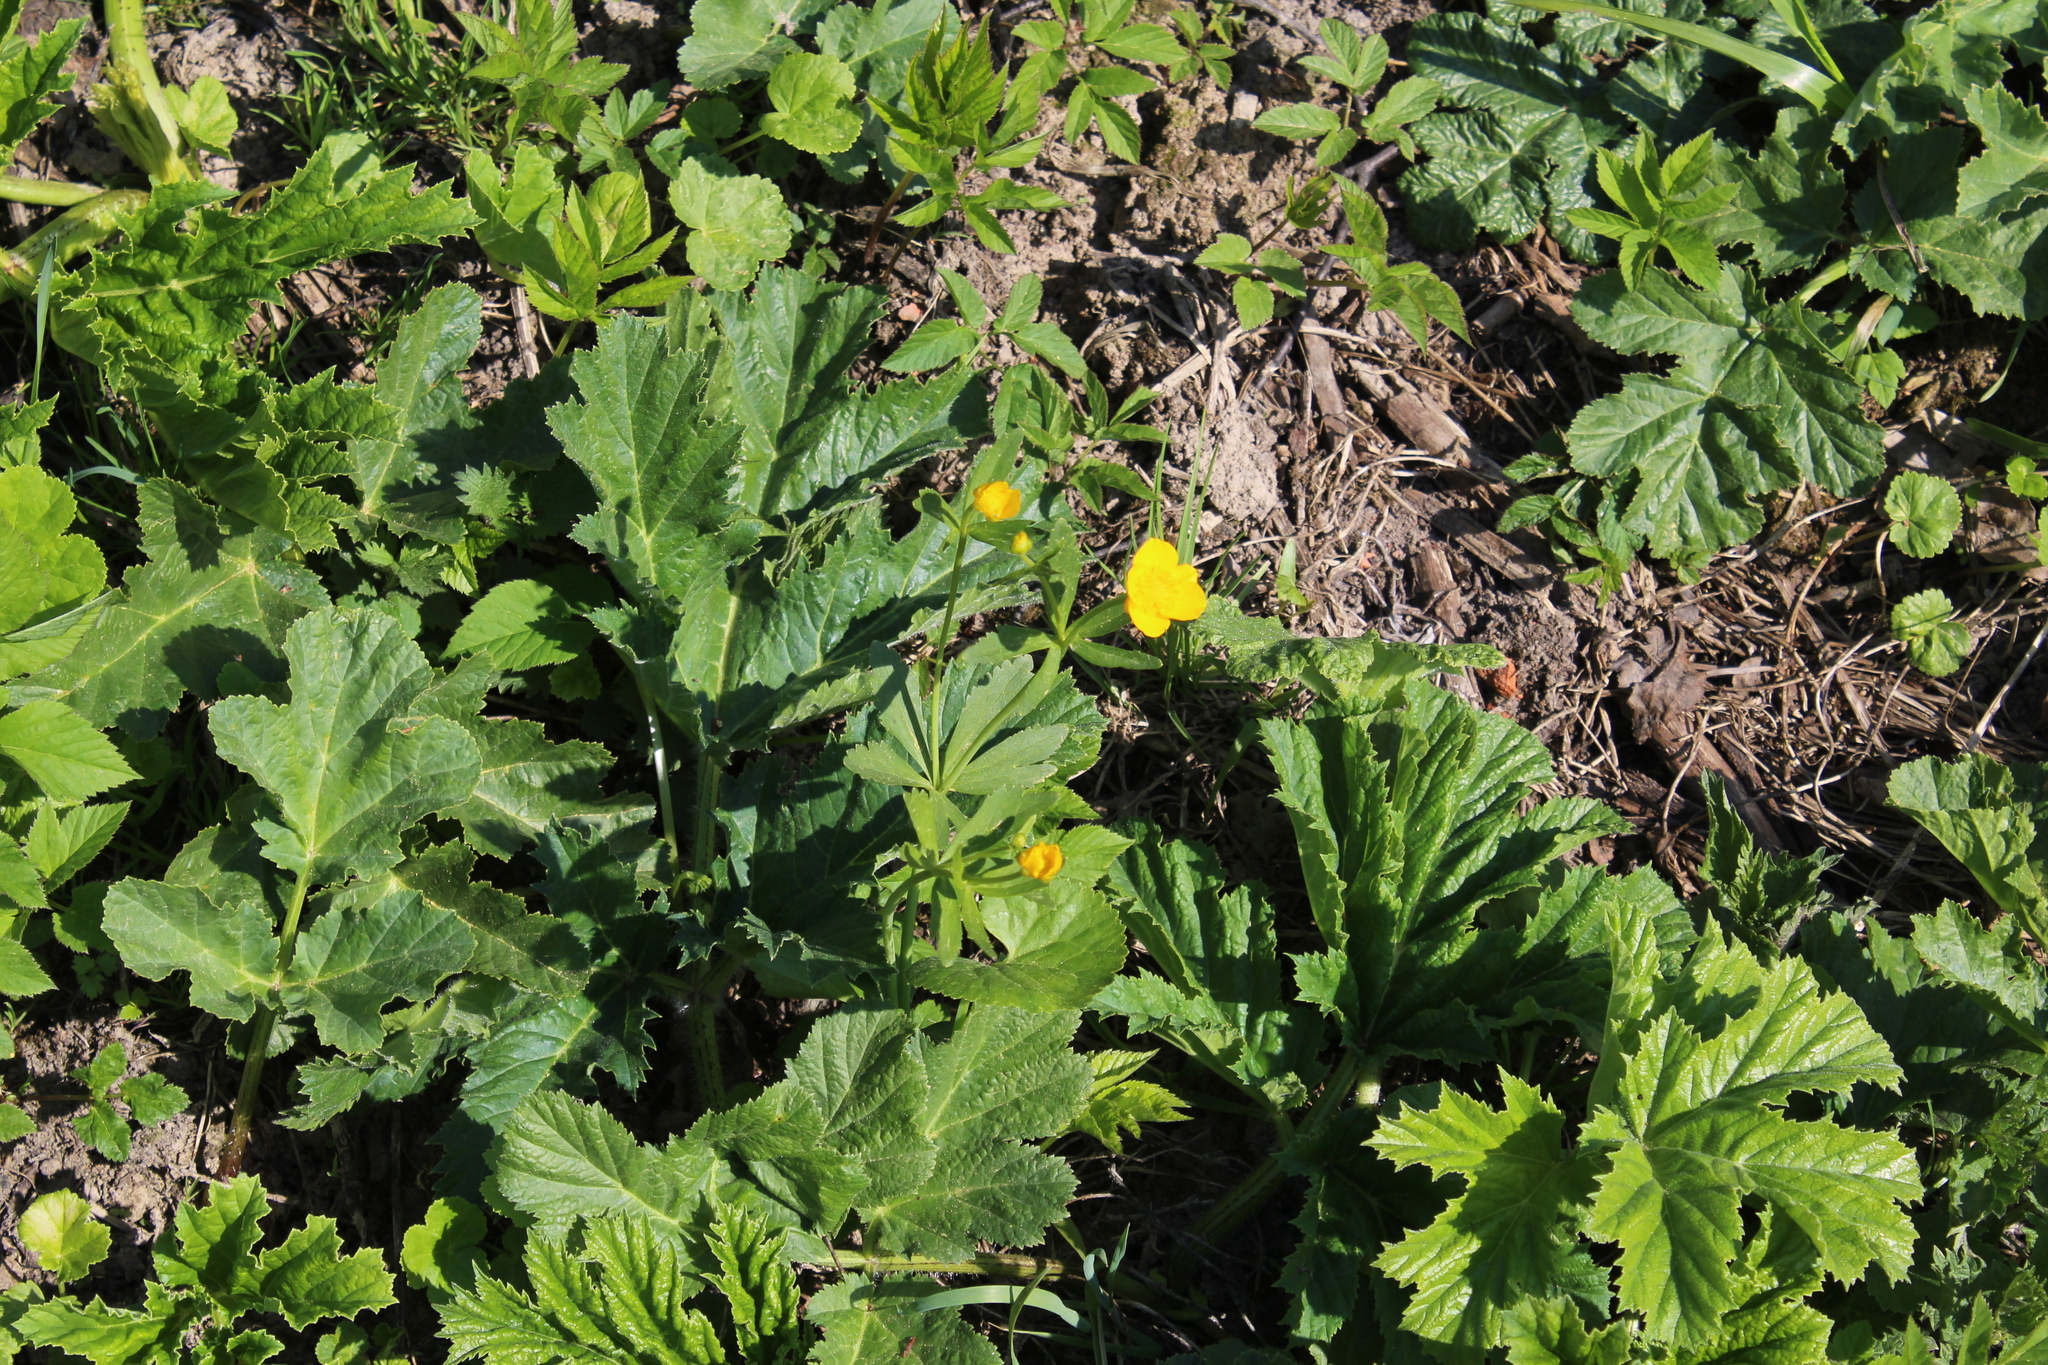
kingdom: Plantae
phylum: Tracheophyta
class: Magnoliopsida
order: Ranunculales
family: Ranunculaceae
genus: Ranunculus
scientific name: Ranunculus cassubicus
